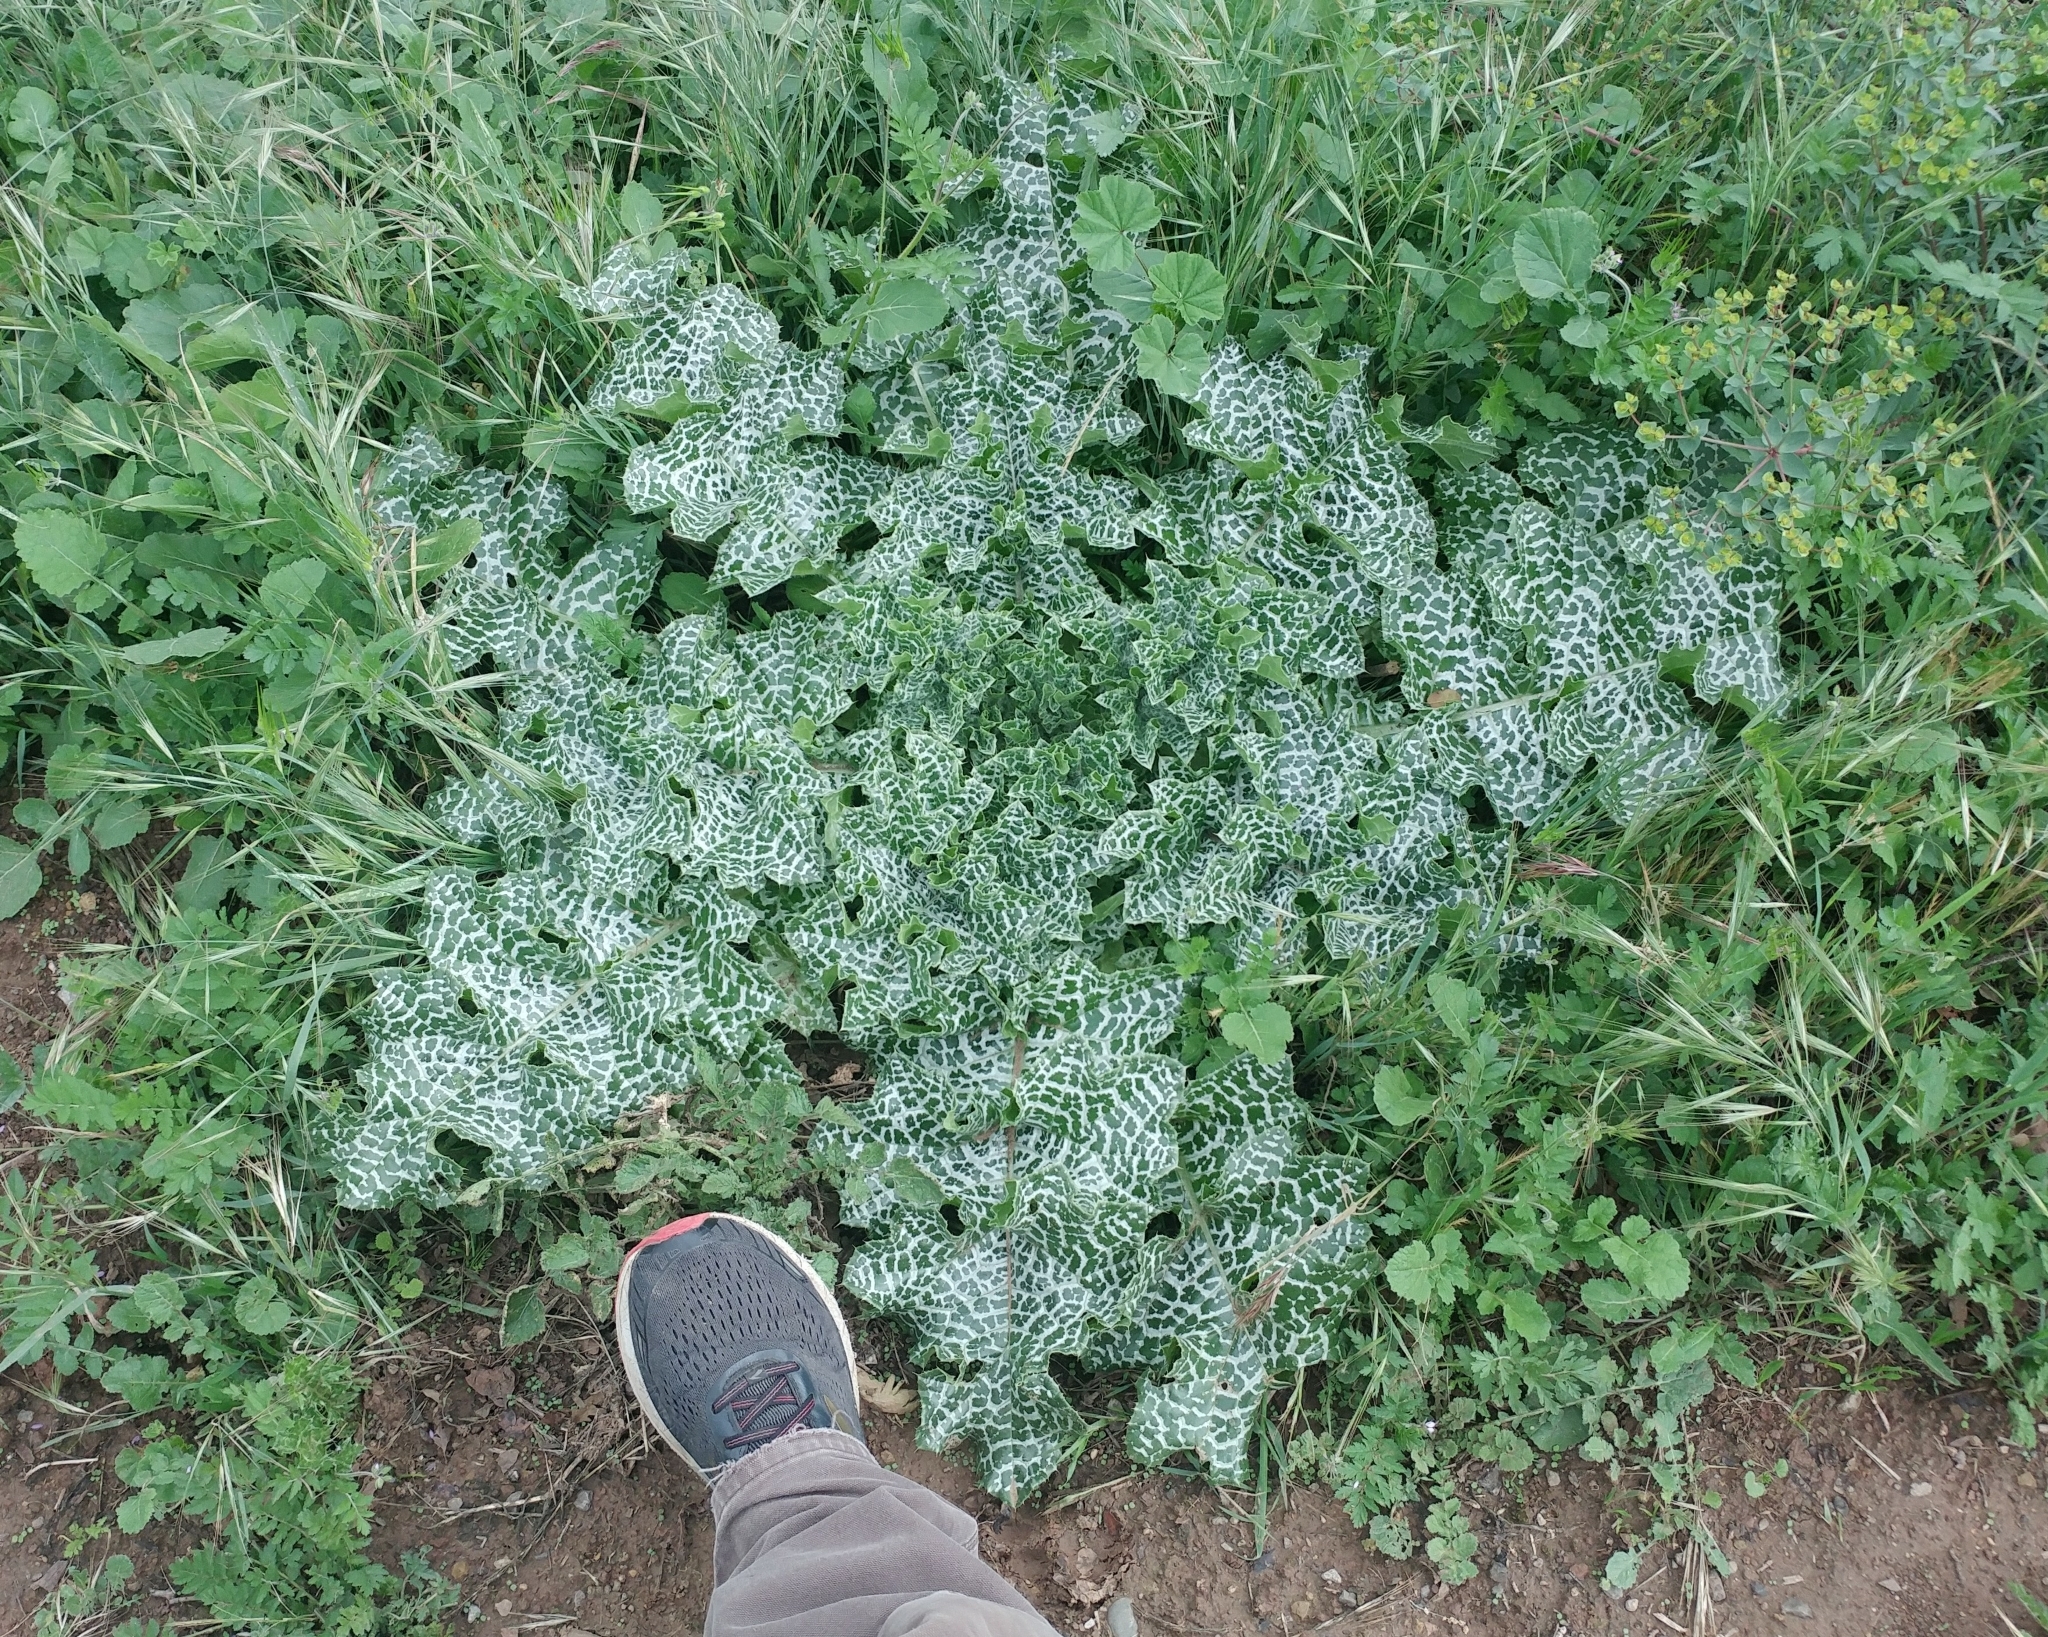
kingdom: Plantae
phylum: Tracheophyta
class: Magnoliopsida
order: Asterales
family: Asteraceae
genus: Silybum
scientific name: Silybum marianum
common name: Milk thistle
